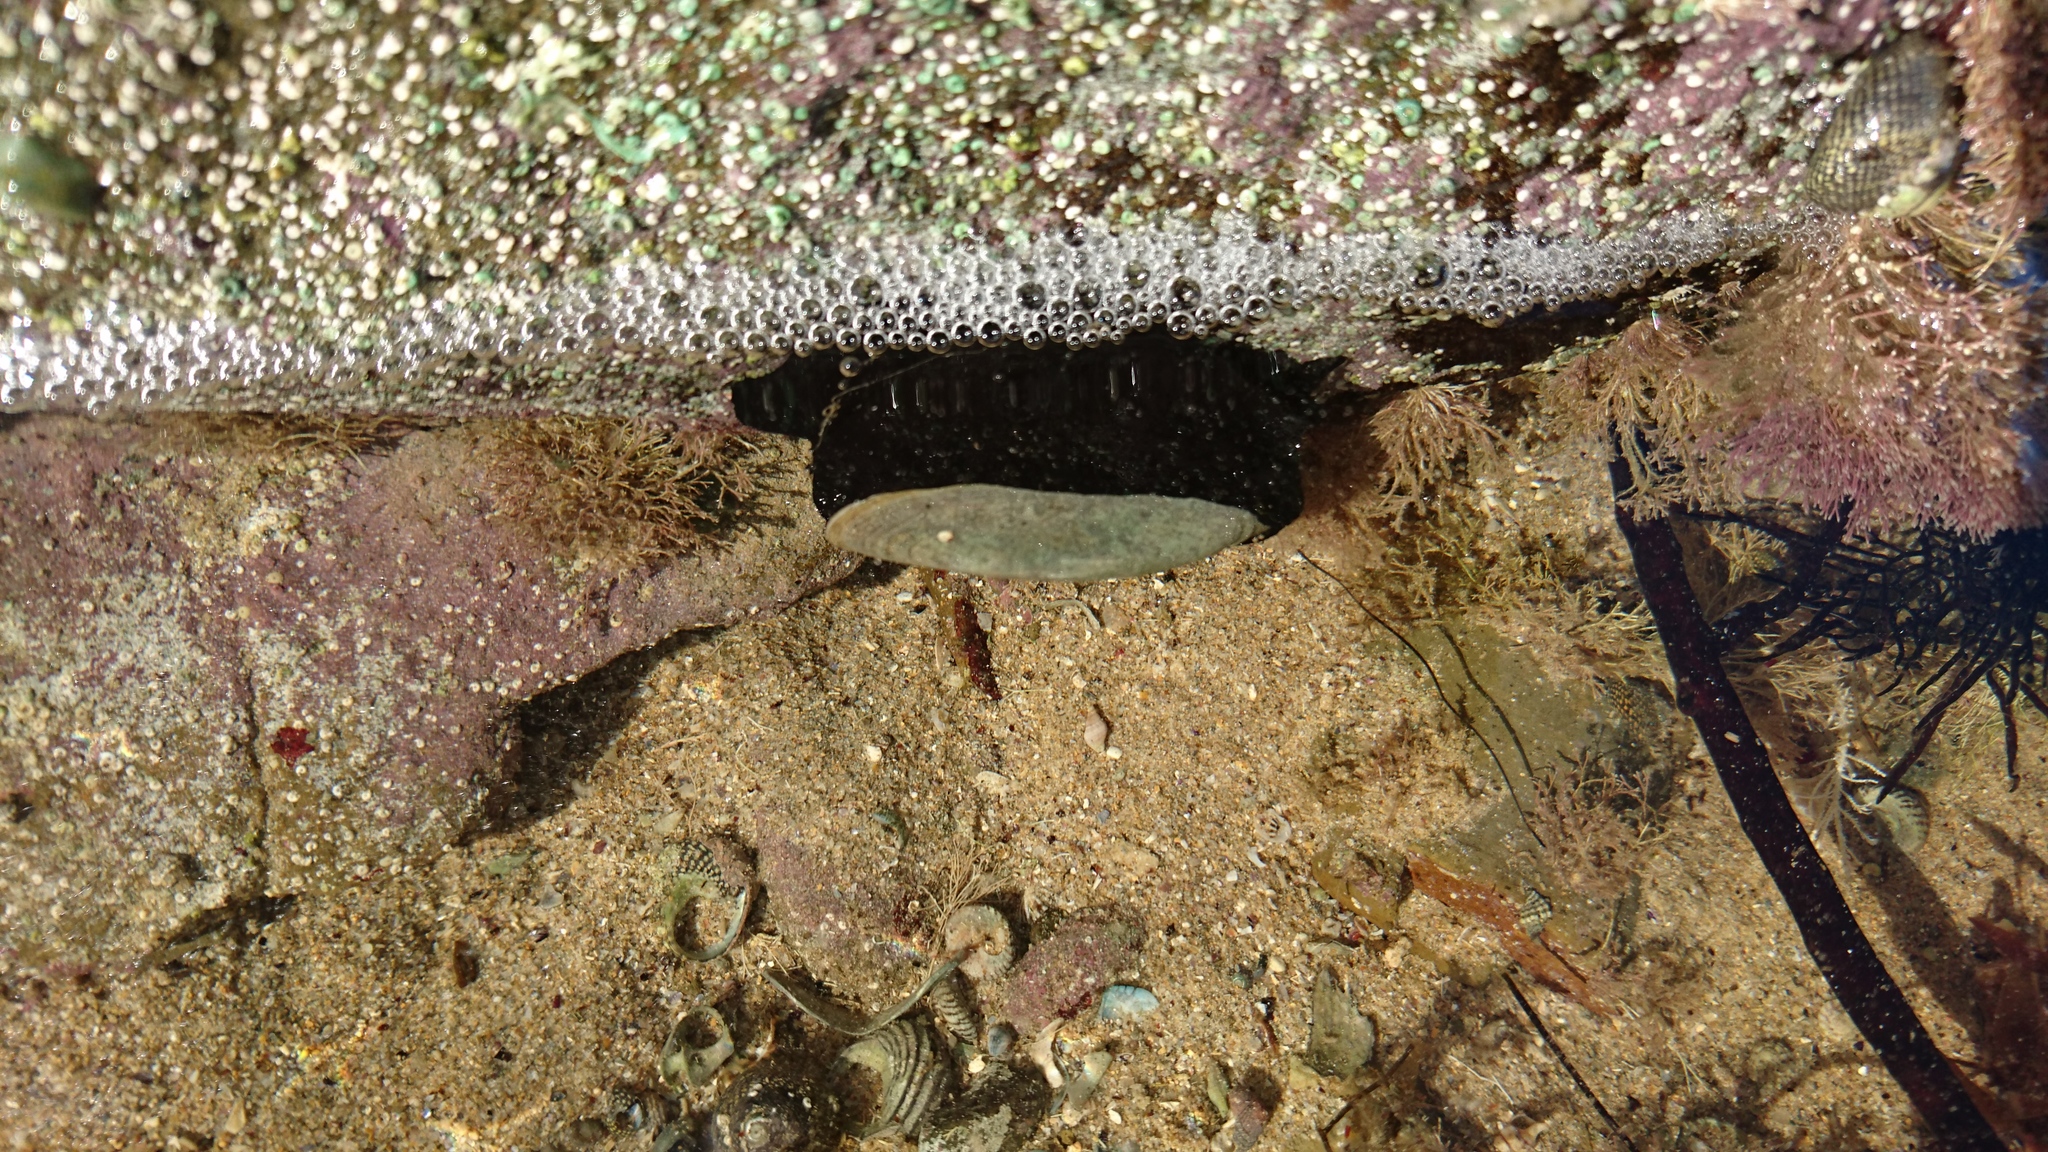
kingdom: Animalia
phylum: Mollusca
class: Gastropoda
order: Lepetellida
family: Fissurellidae
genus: Scutus
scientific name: Scutus antipodes
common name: Duckbill shell
